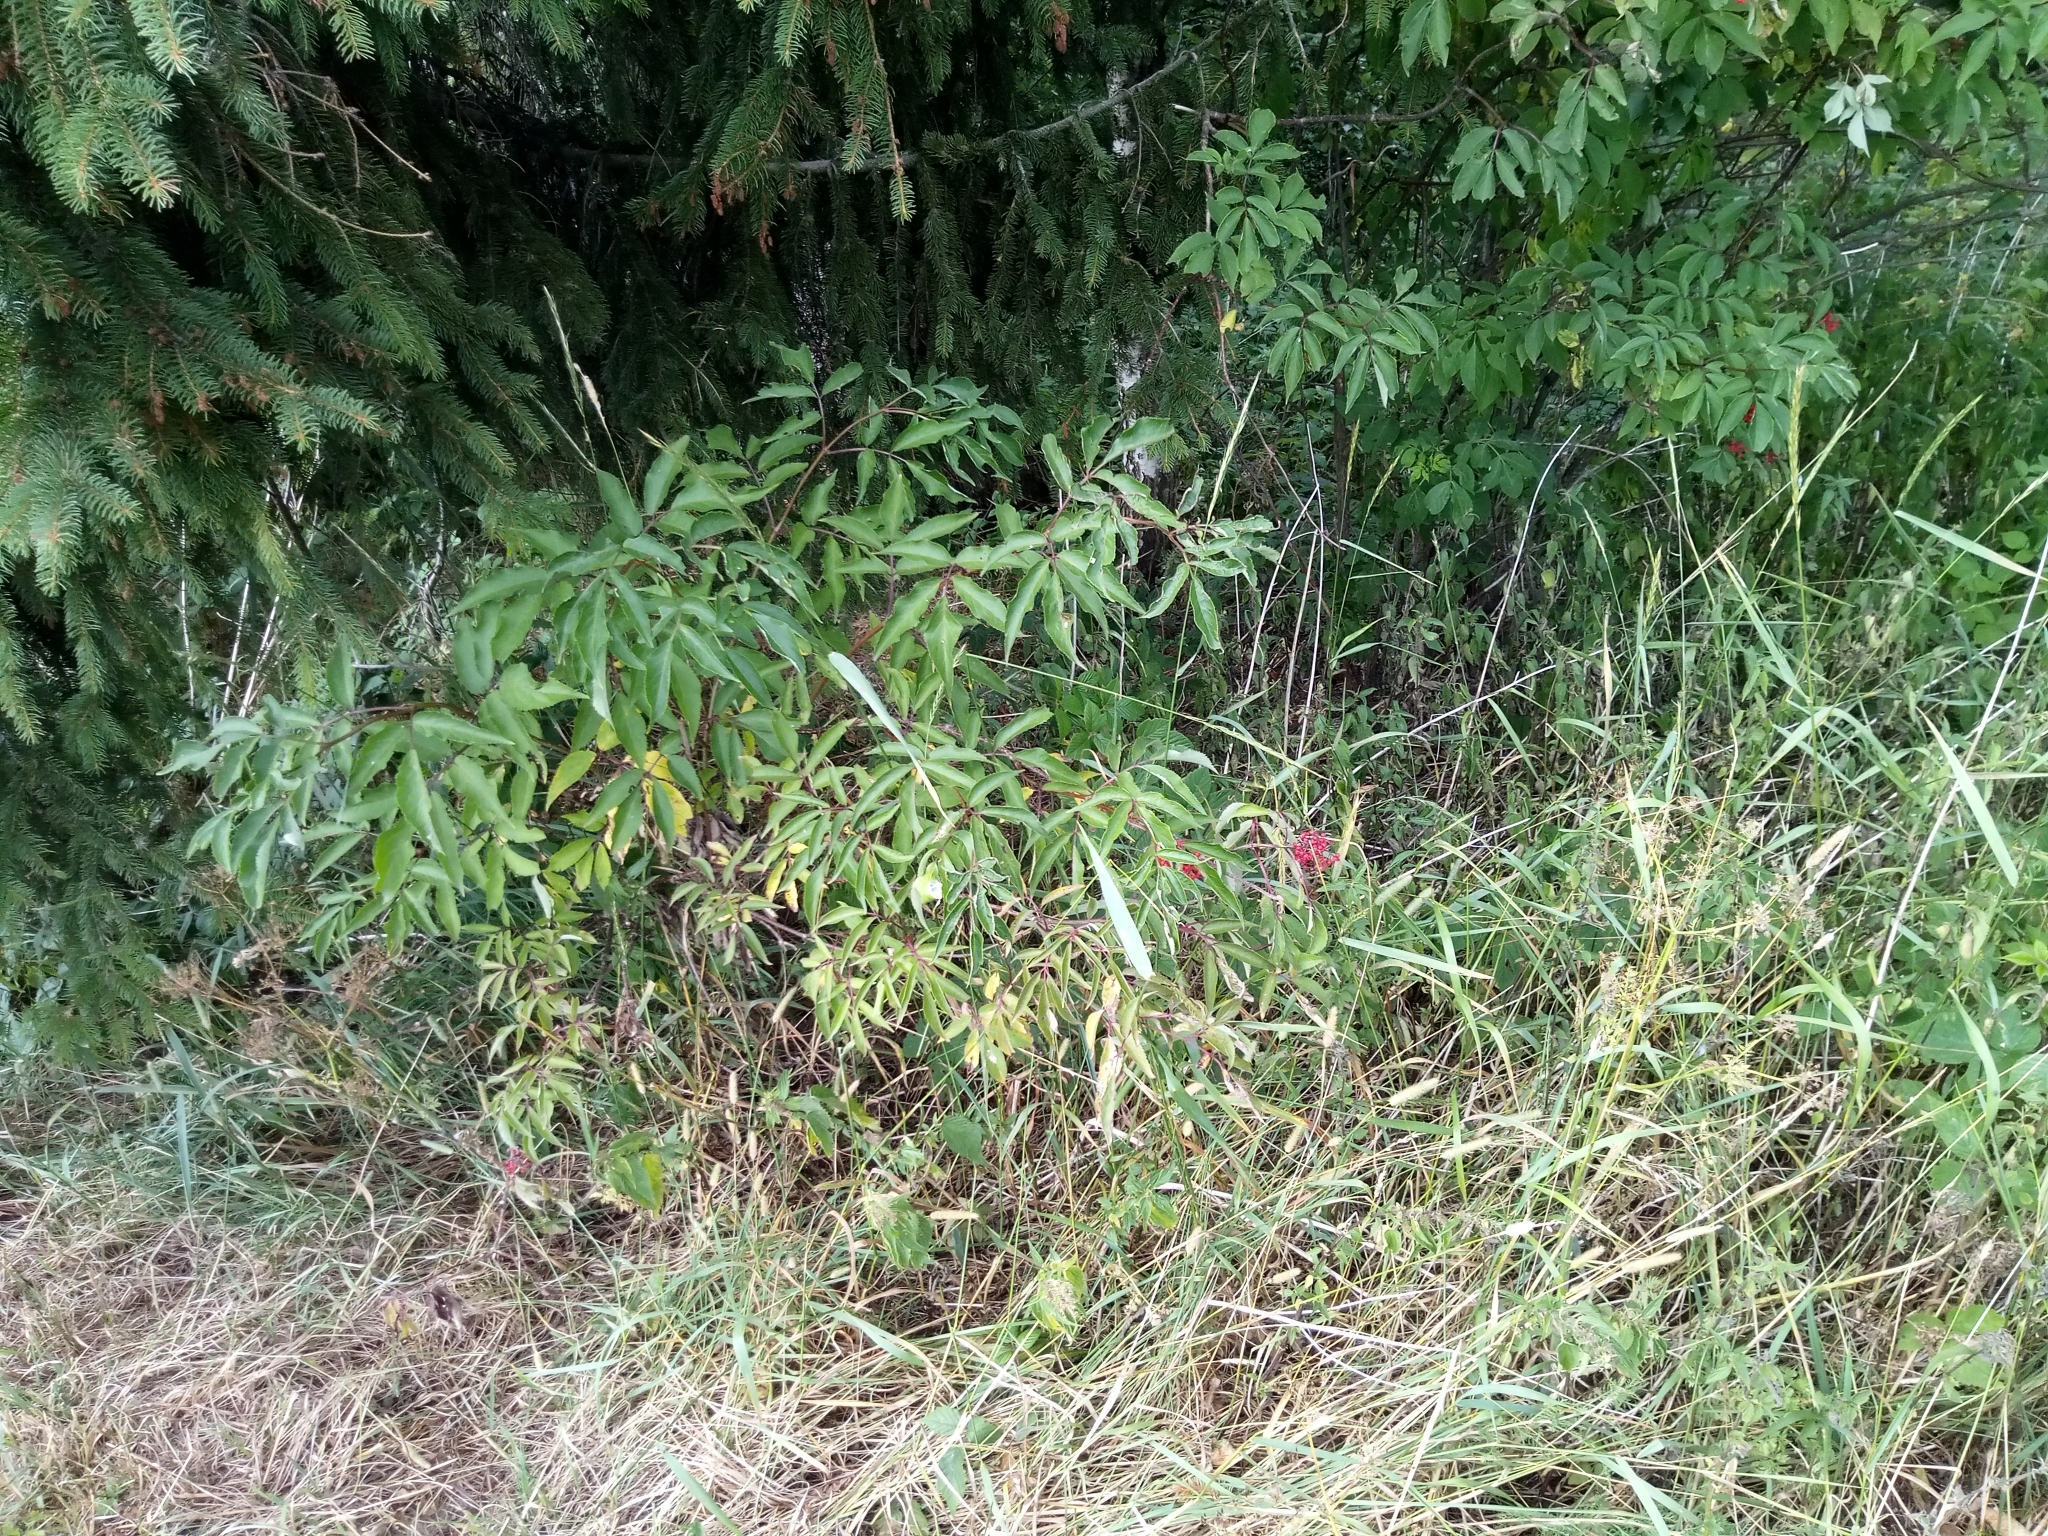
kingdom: Plantae
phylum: Tracheophyta
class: Magnoliopsida
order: Dipsacales
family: Viburnaceae
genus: Sambucus
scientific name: Sambucus racemosa
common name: Red-berried elder
